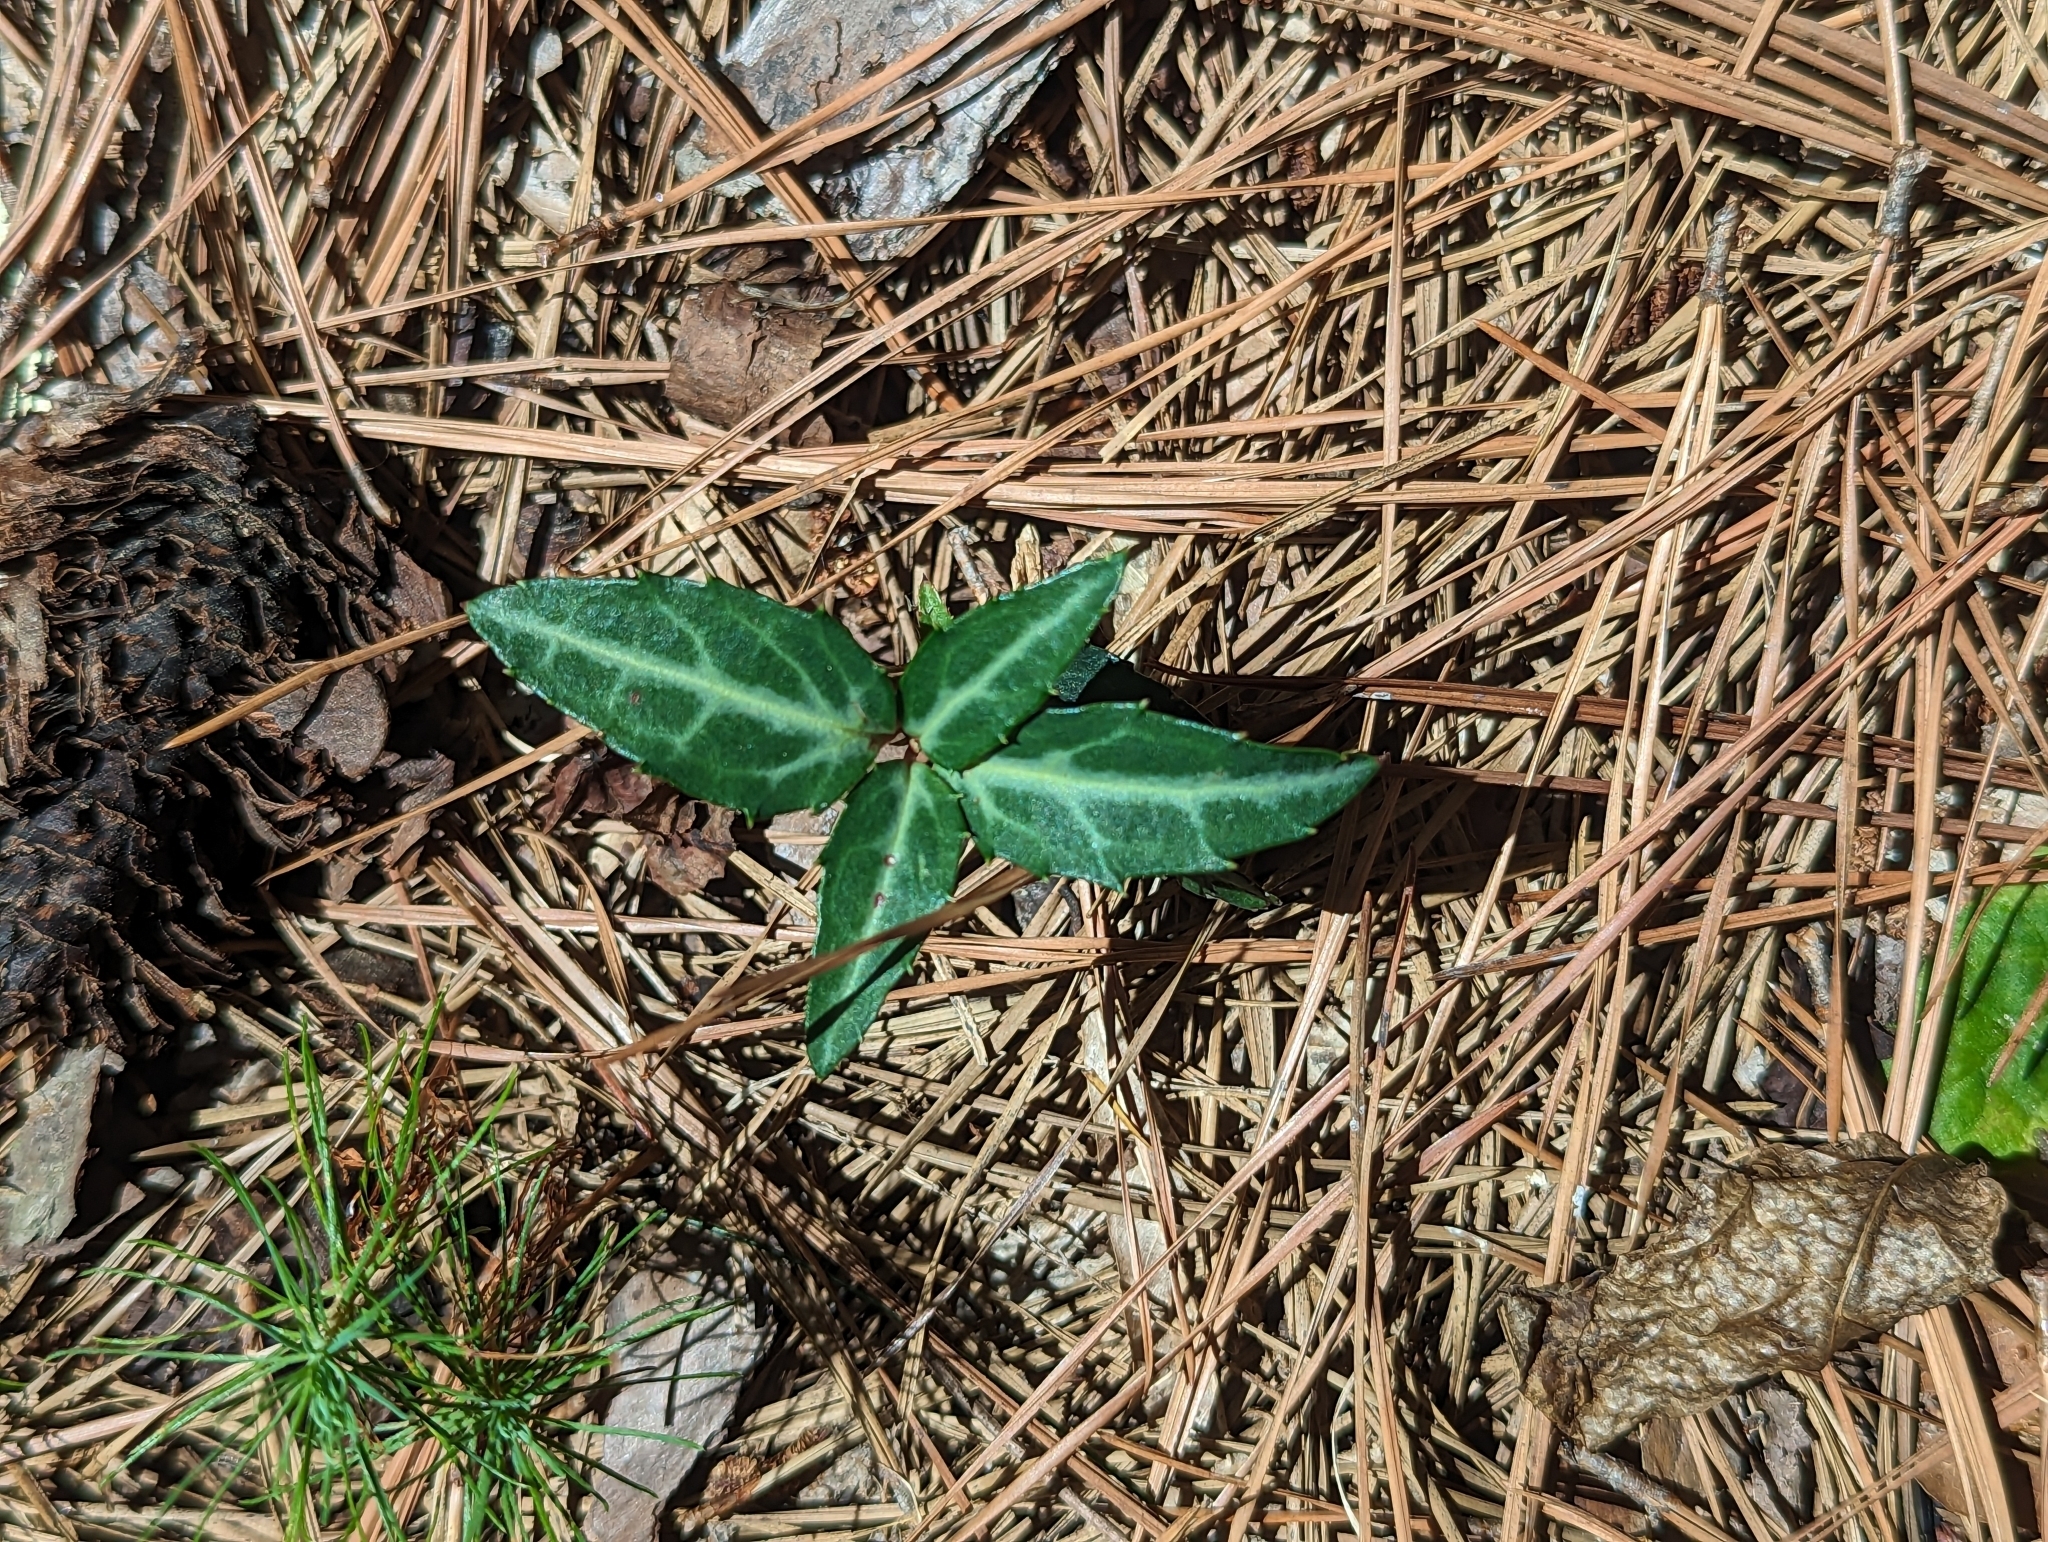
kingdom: Plantae
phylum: Tracheophyta
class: Magnoliopsida
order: Ericales
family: Ericaceae
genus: Chimaphila
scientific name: Chimaphila maculata
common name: Spotted pipsissewa
